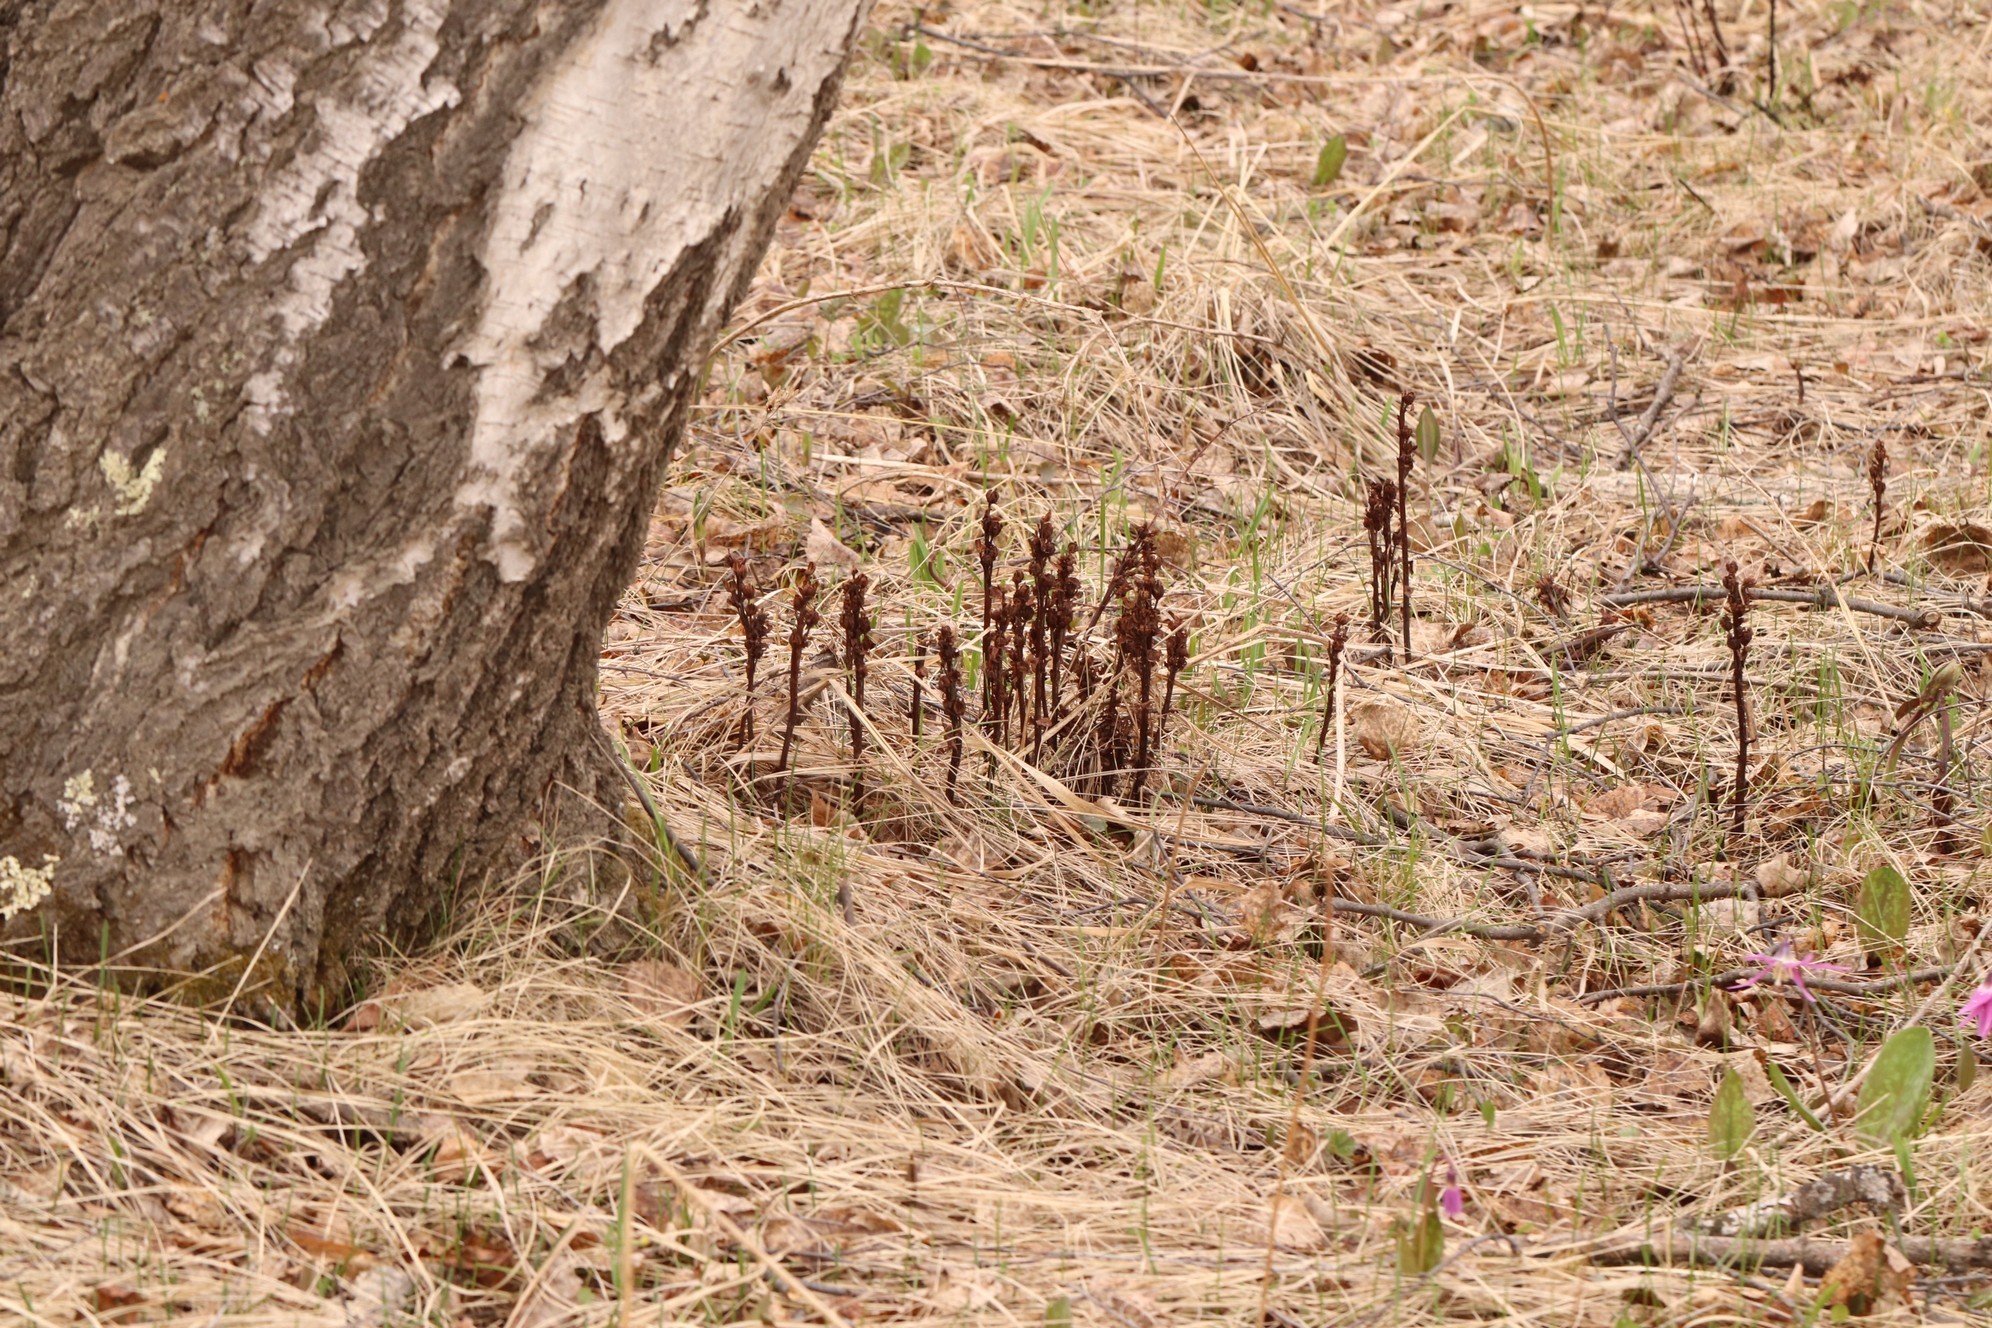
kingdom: Plantae
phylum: Tracheophyta
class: Magnoliopsida
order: Ericales
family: Ericaceae
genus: Hypopitys
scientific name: Hypopitys monotropa
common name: Yellow bird's-nest
